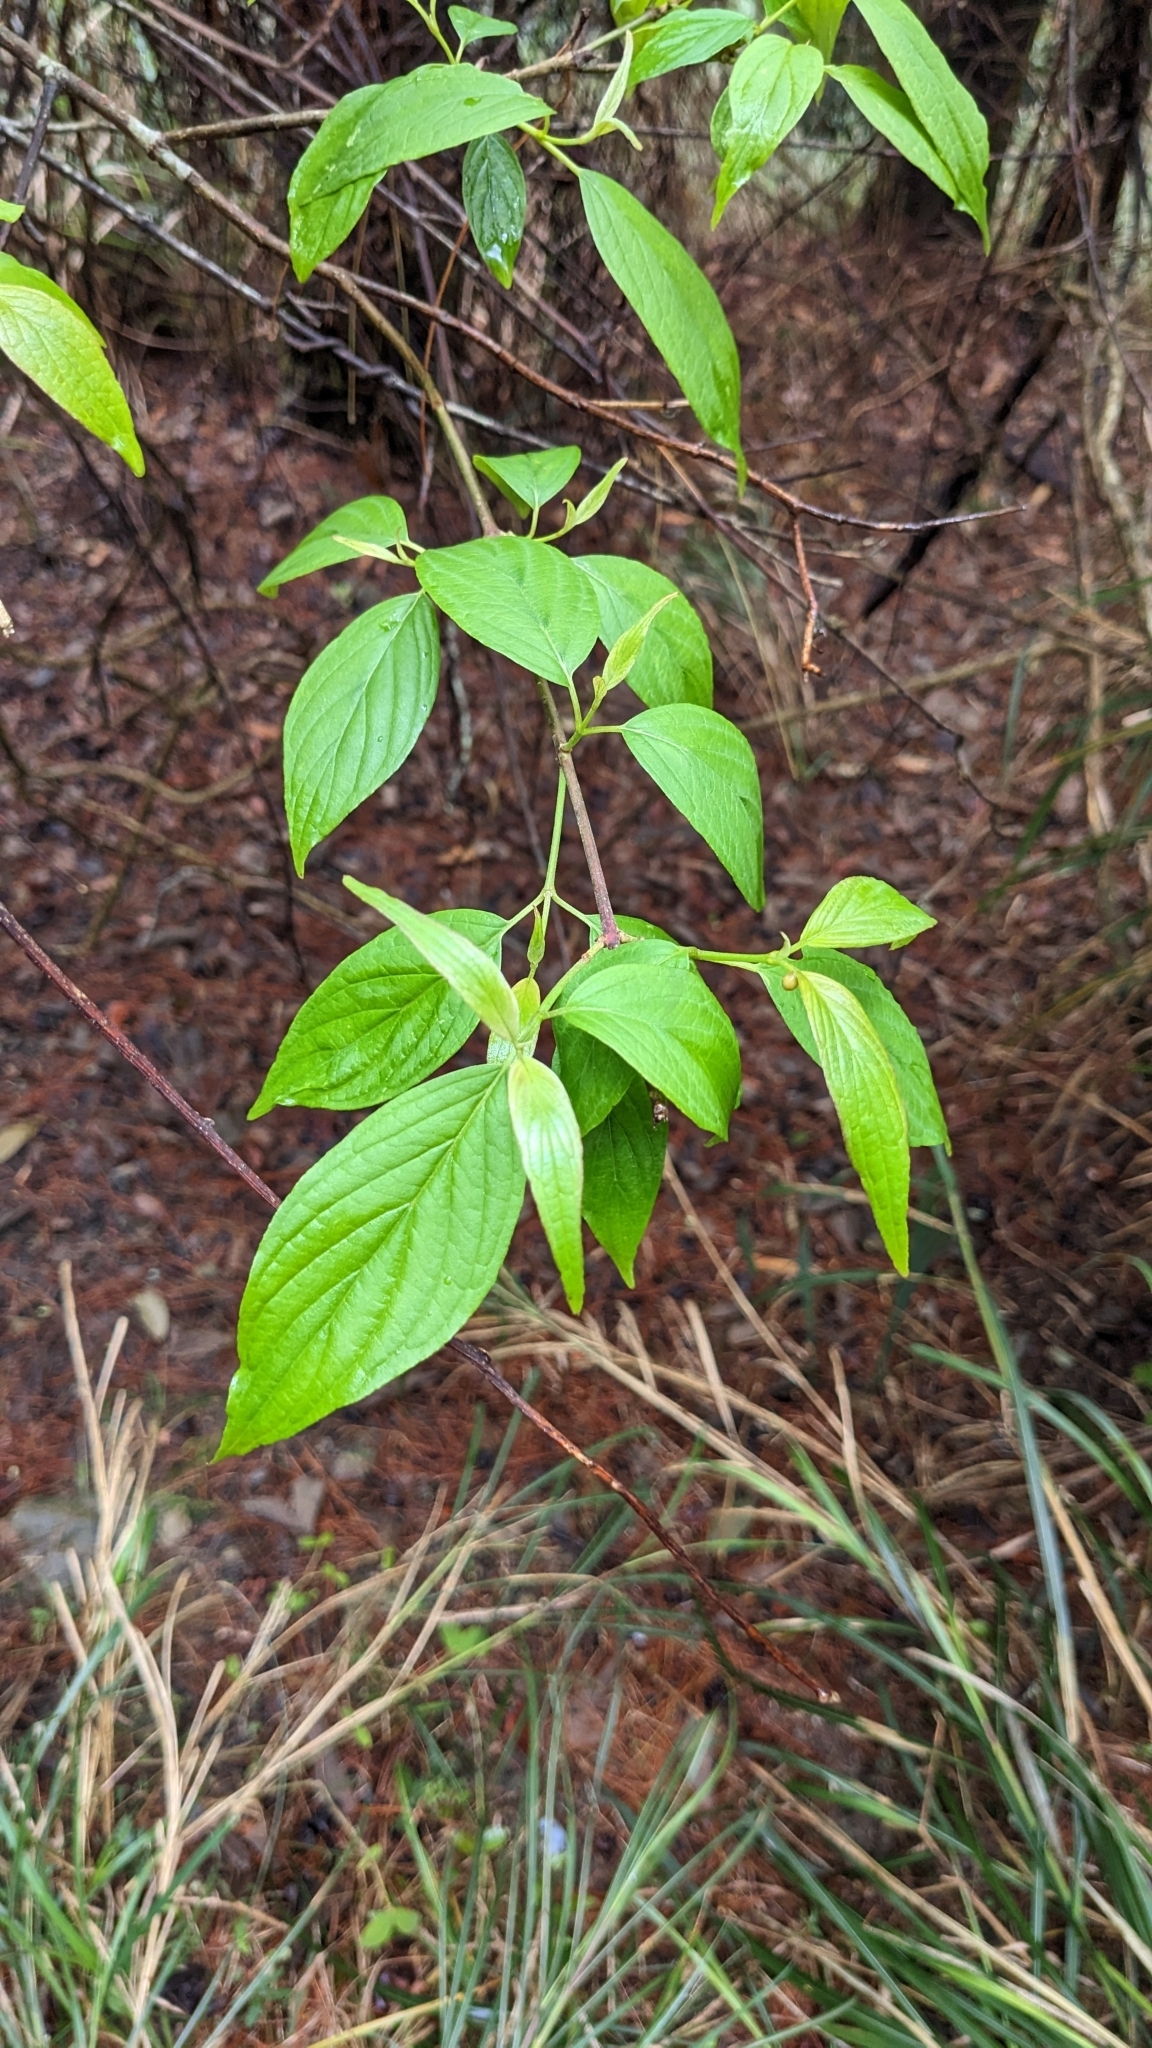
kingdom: Plantae
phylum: Tracheophyta
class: Magnoliopsida
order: Dipsacales
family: Viburnaceae
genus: Viburnum
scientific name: Viburnum urceolatum
